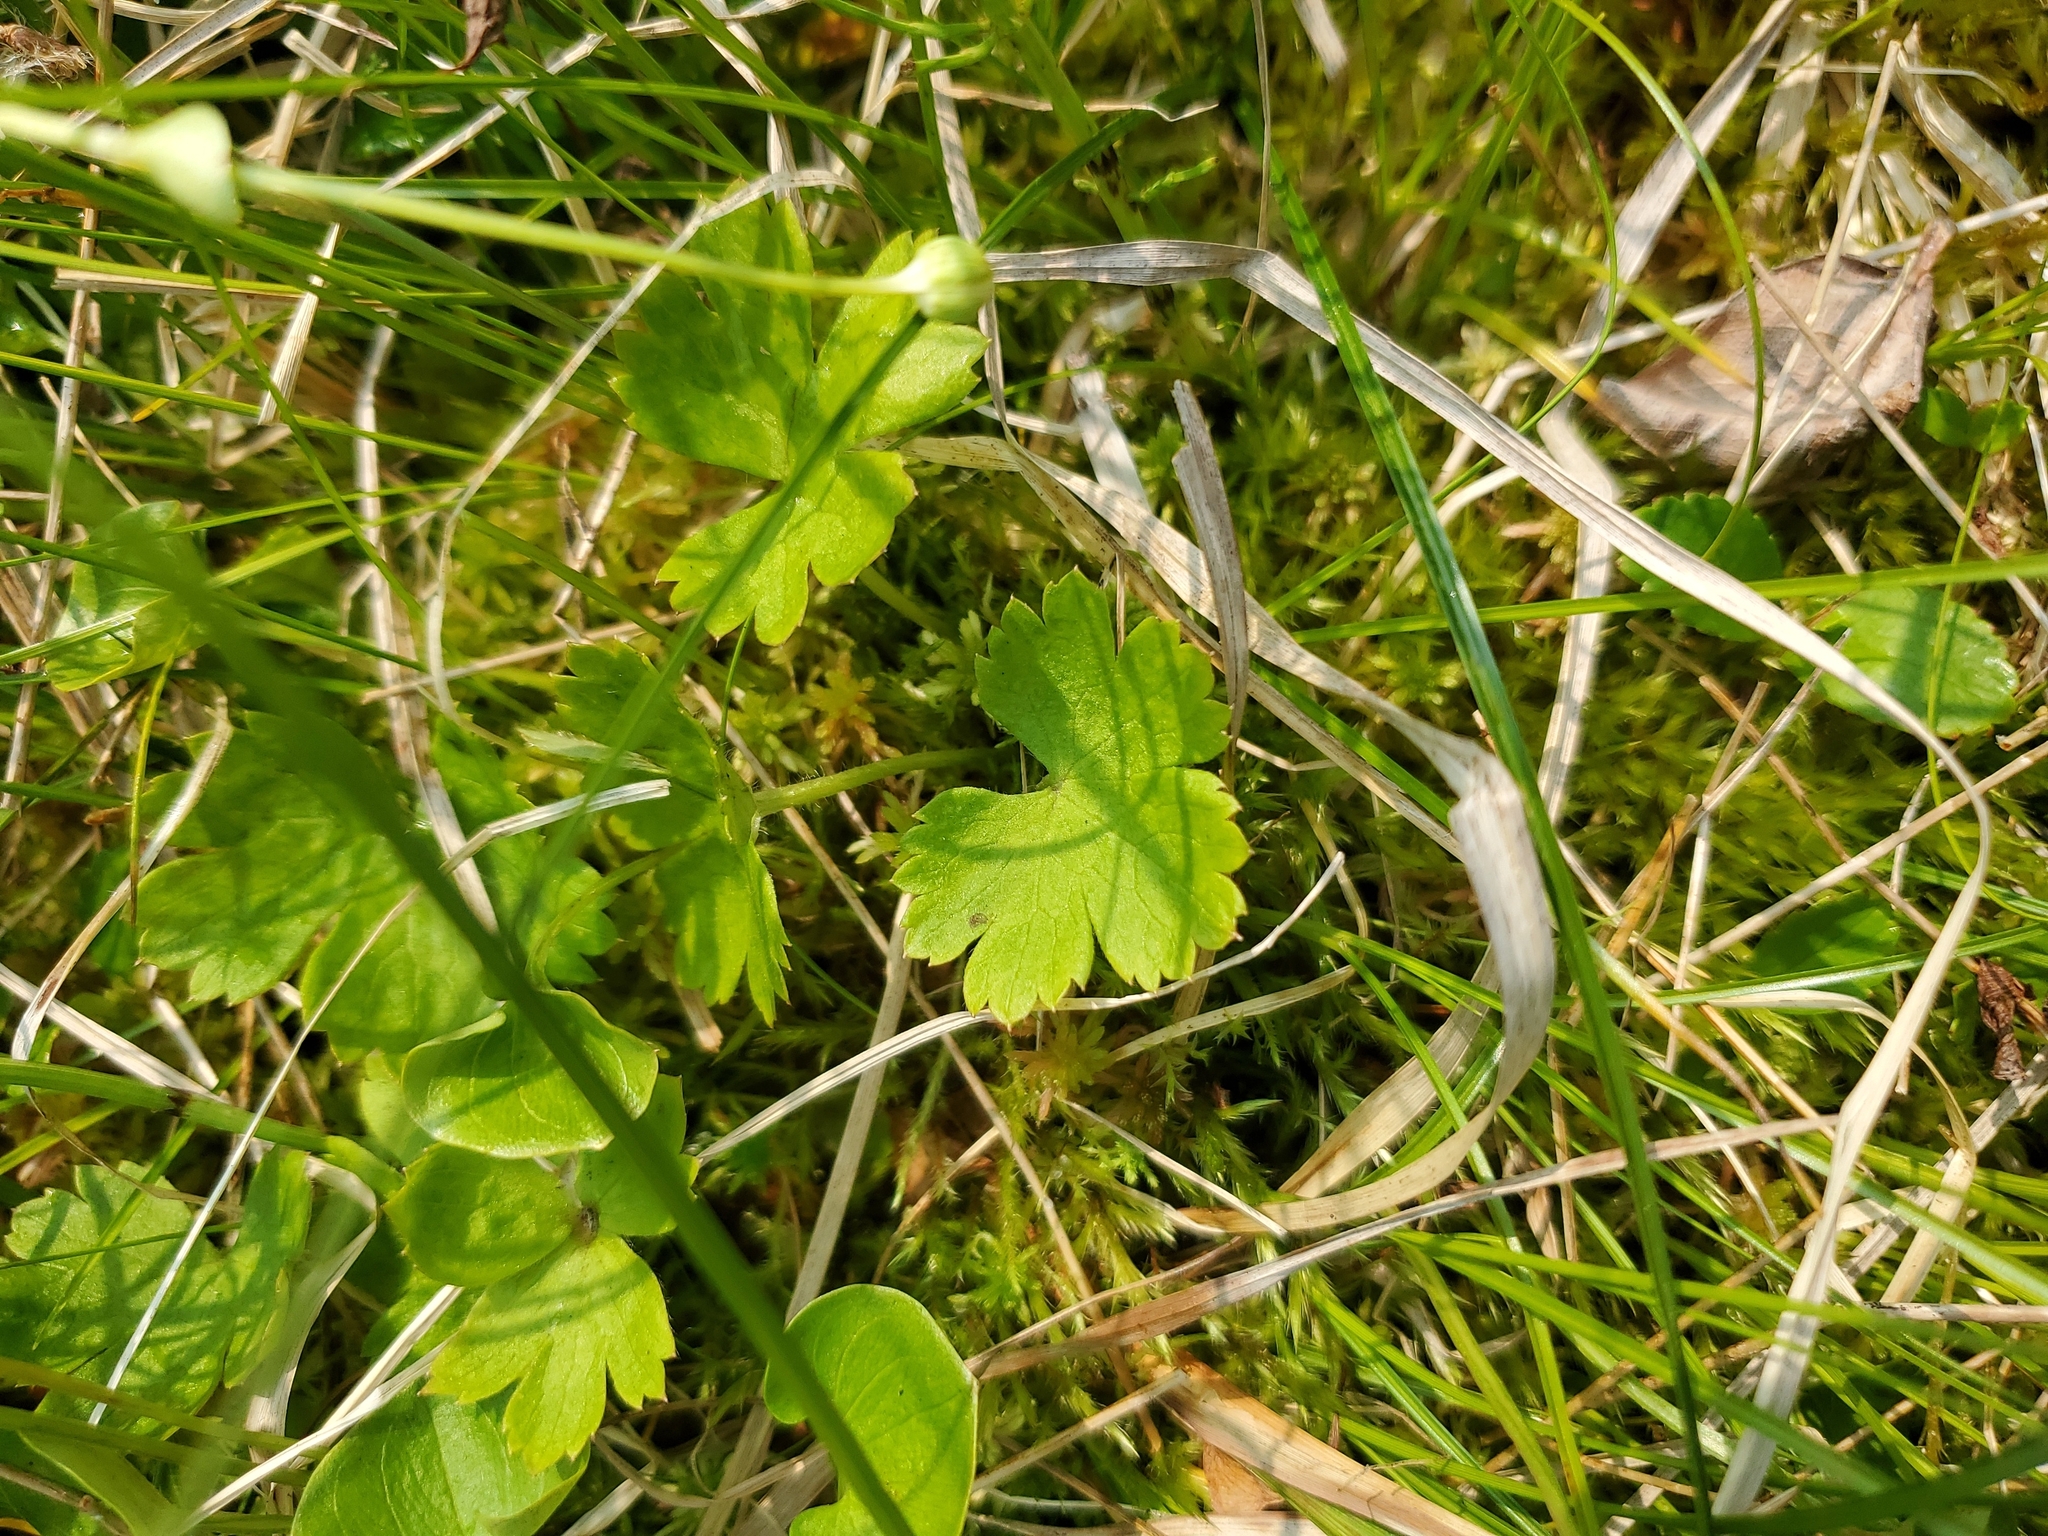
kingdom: Plantae
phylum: Tracheophyta
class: Magnoliopsida
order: Ranunculales
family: Ranunculaceae
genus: Anemonastrum
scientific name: Anemonastrum richardsonii
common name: Richardson's anemone
